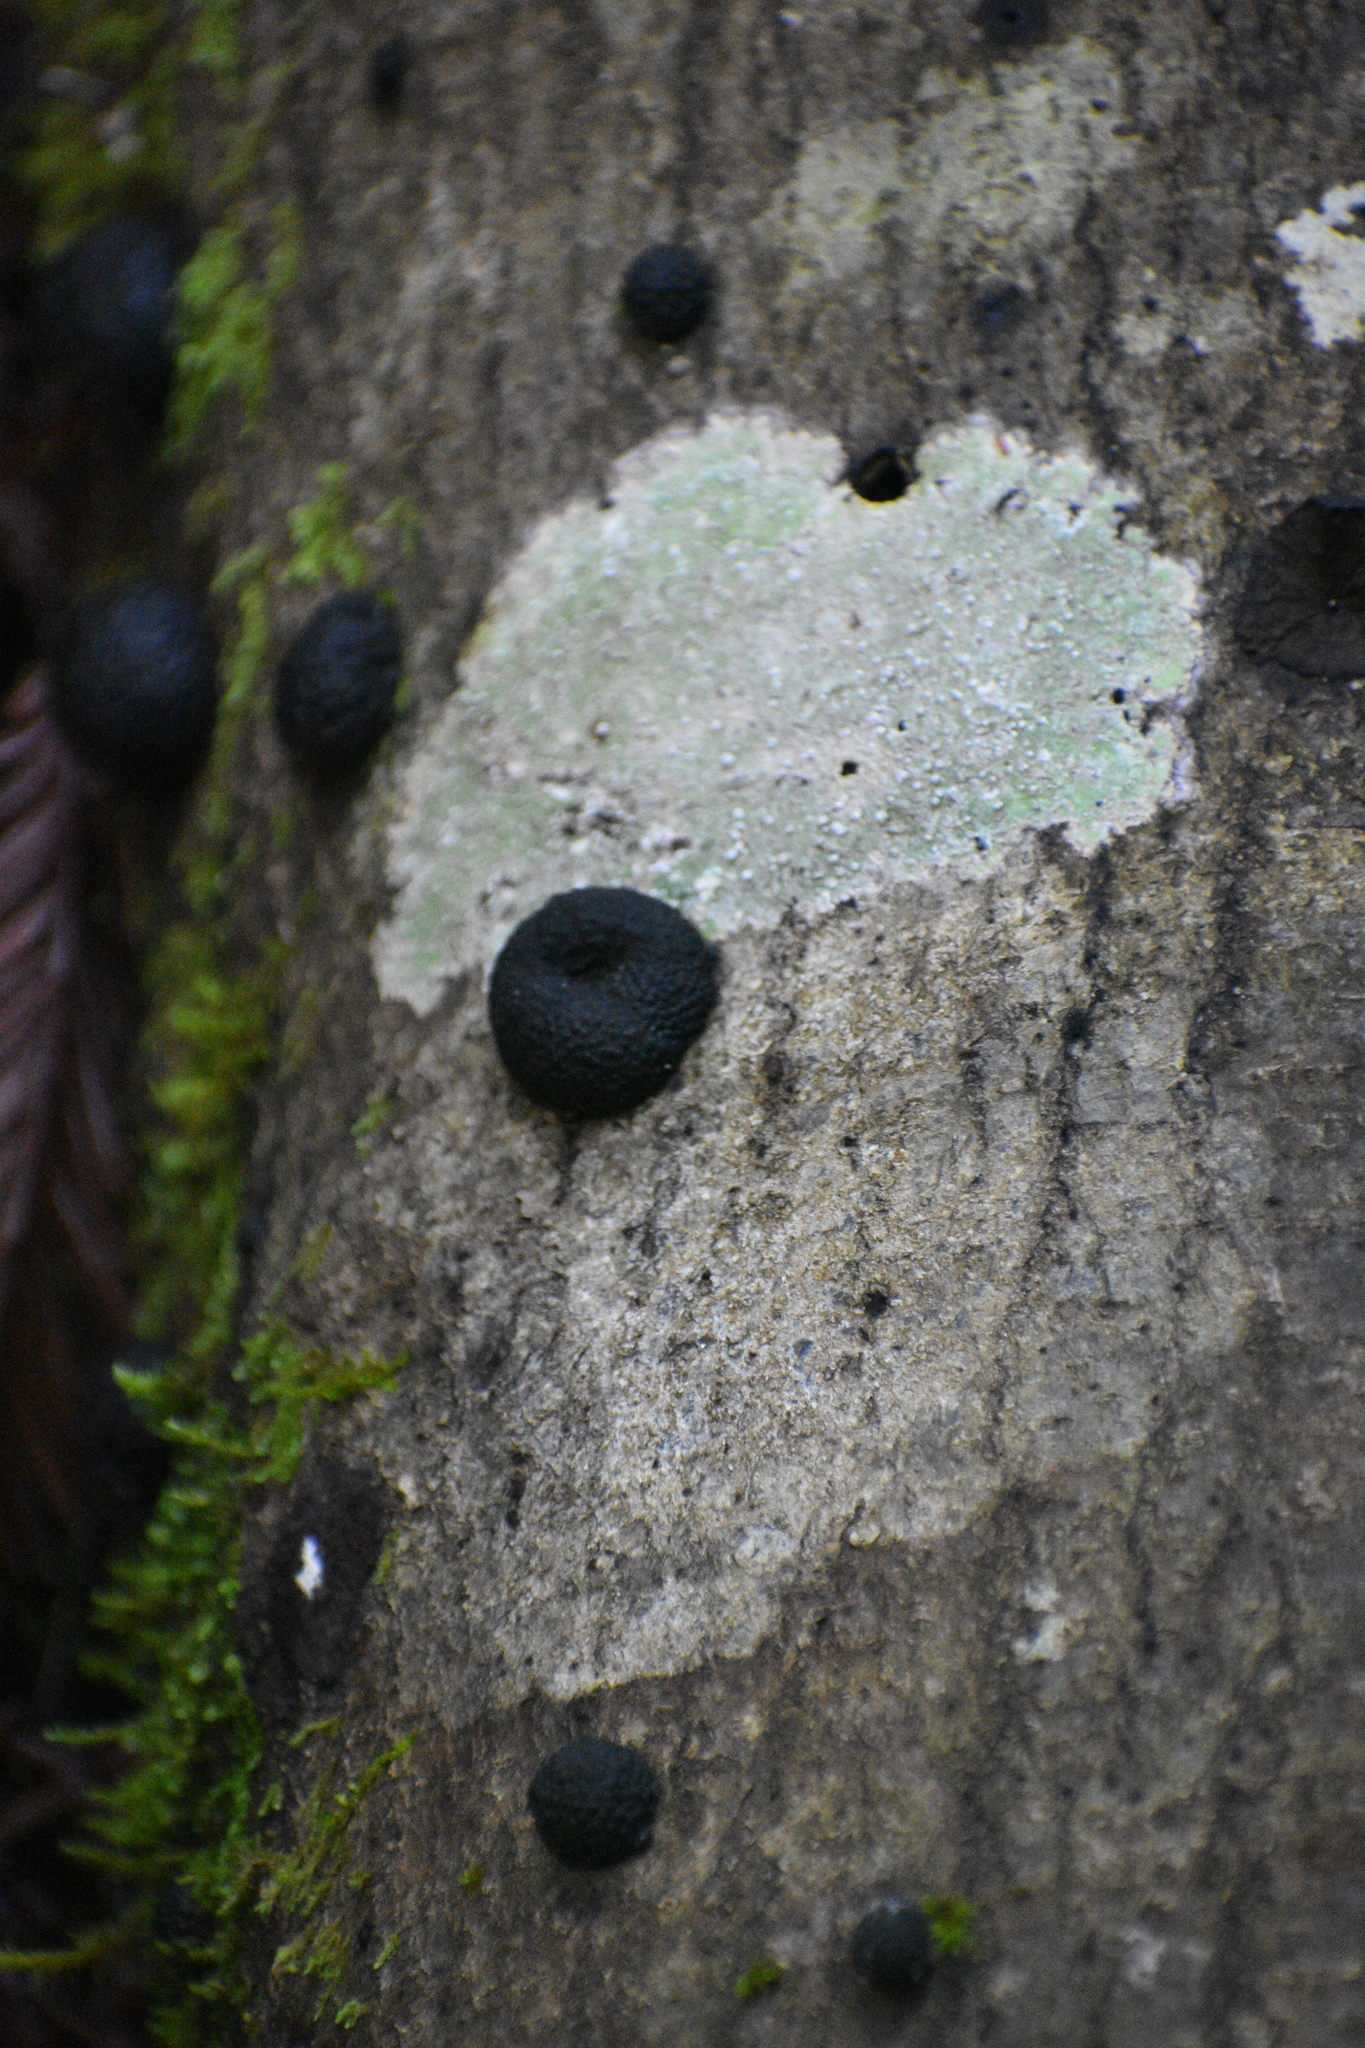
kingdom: Fungi
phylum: Ascomycota
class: Sordariomycetes
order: Xylariales
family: Hypoxylaceae
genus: Annulohypoxylon
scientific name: Annulohypoxylon thouarsianum
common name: Cramp balls
